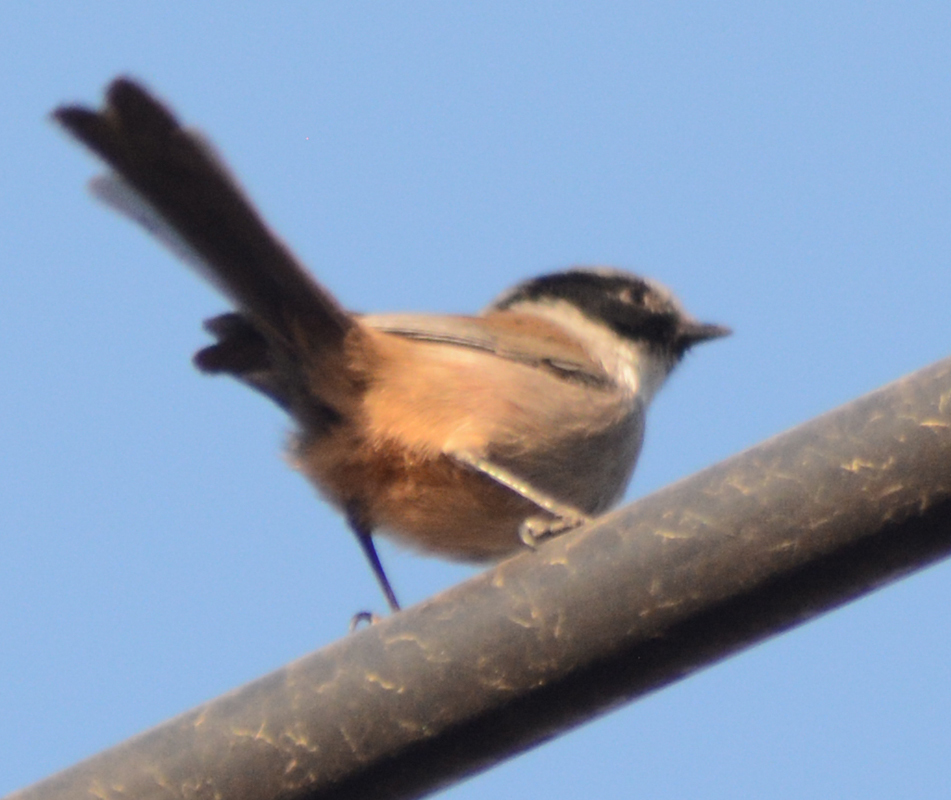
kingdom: Animalia
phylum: Chordata
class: Aves
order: Passeriformes
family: Aegithalidae
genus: Psaltriparus
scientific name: Psaltriparus minimus
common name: American bushtit
